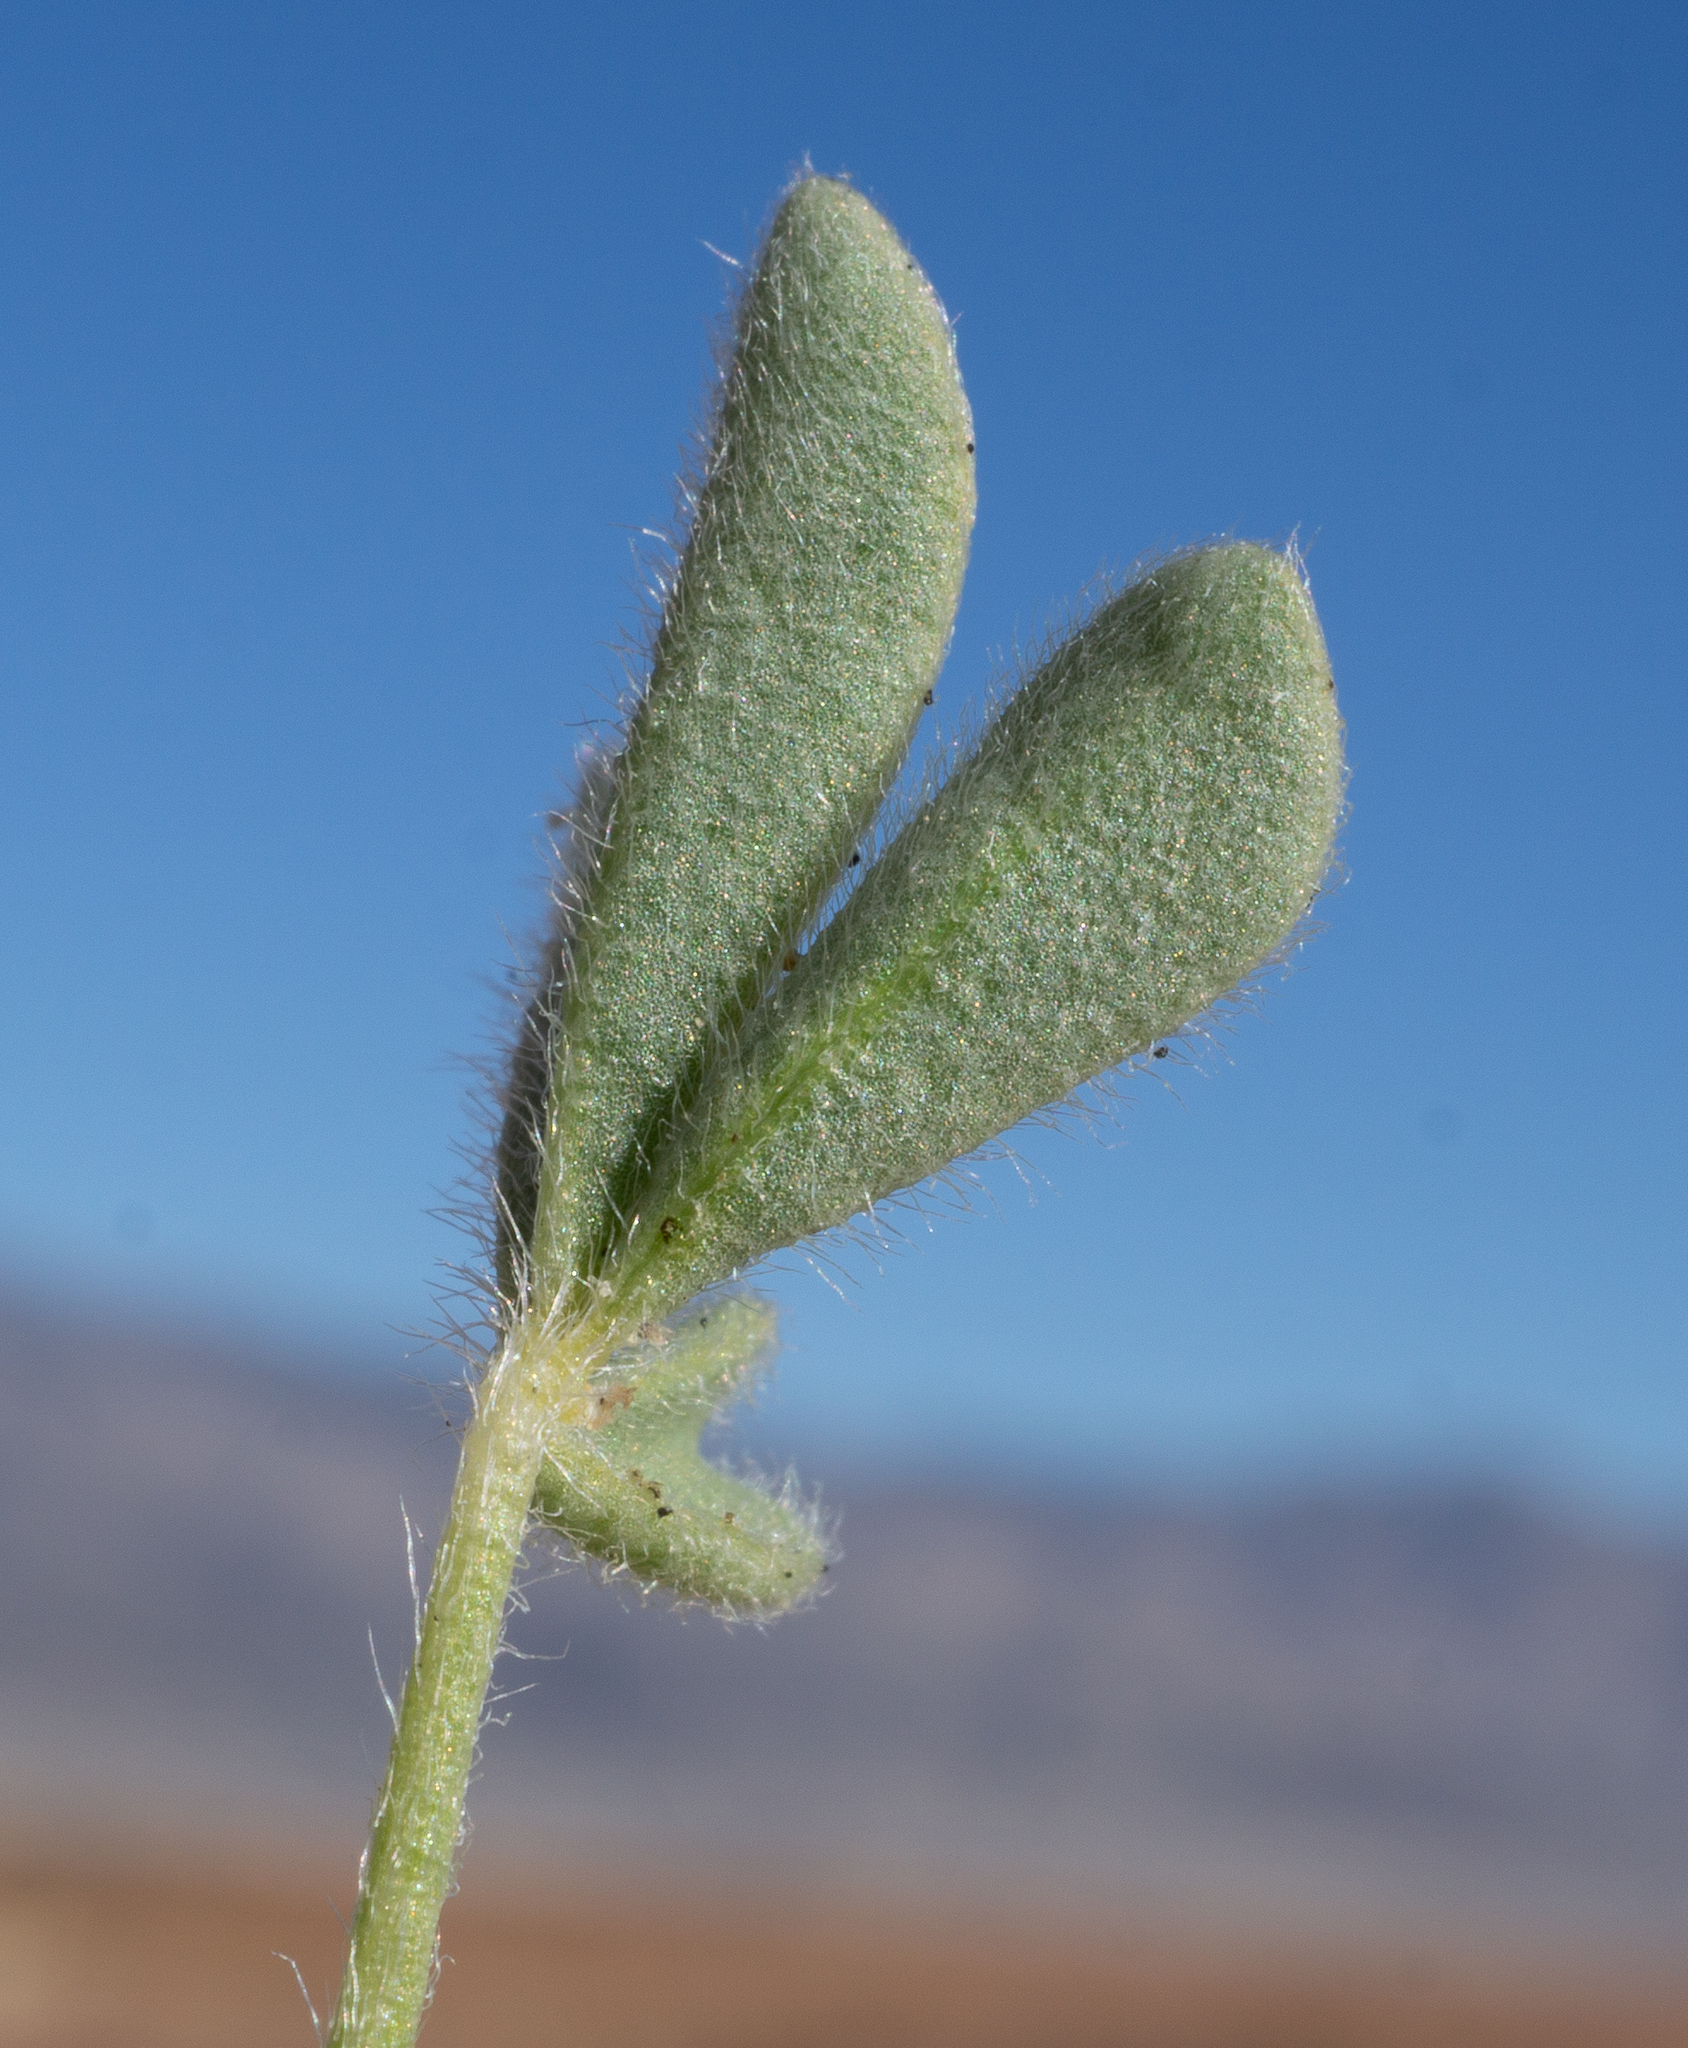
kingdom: Plantae
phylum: Tracheophyta
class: Magnoliopsida
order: Fabales
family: Fabaceae
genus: Lupinus
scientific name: Lupinus
